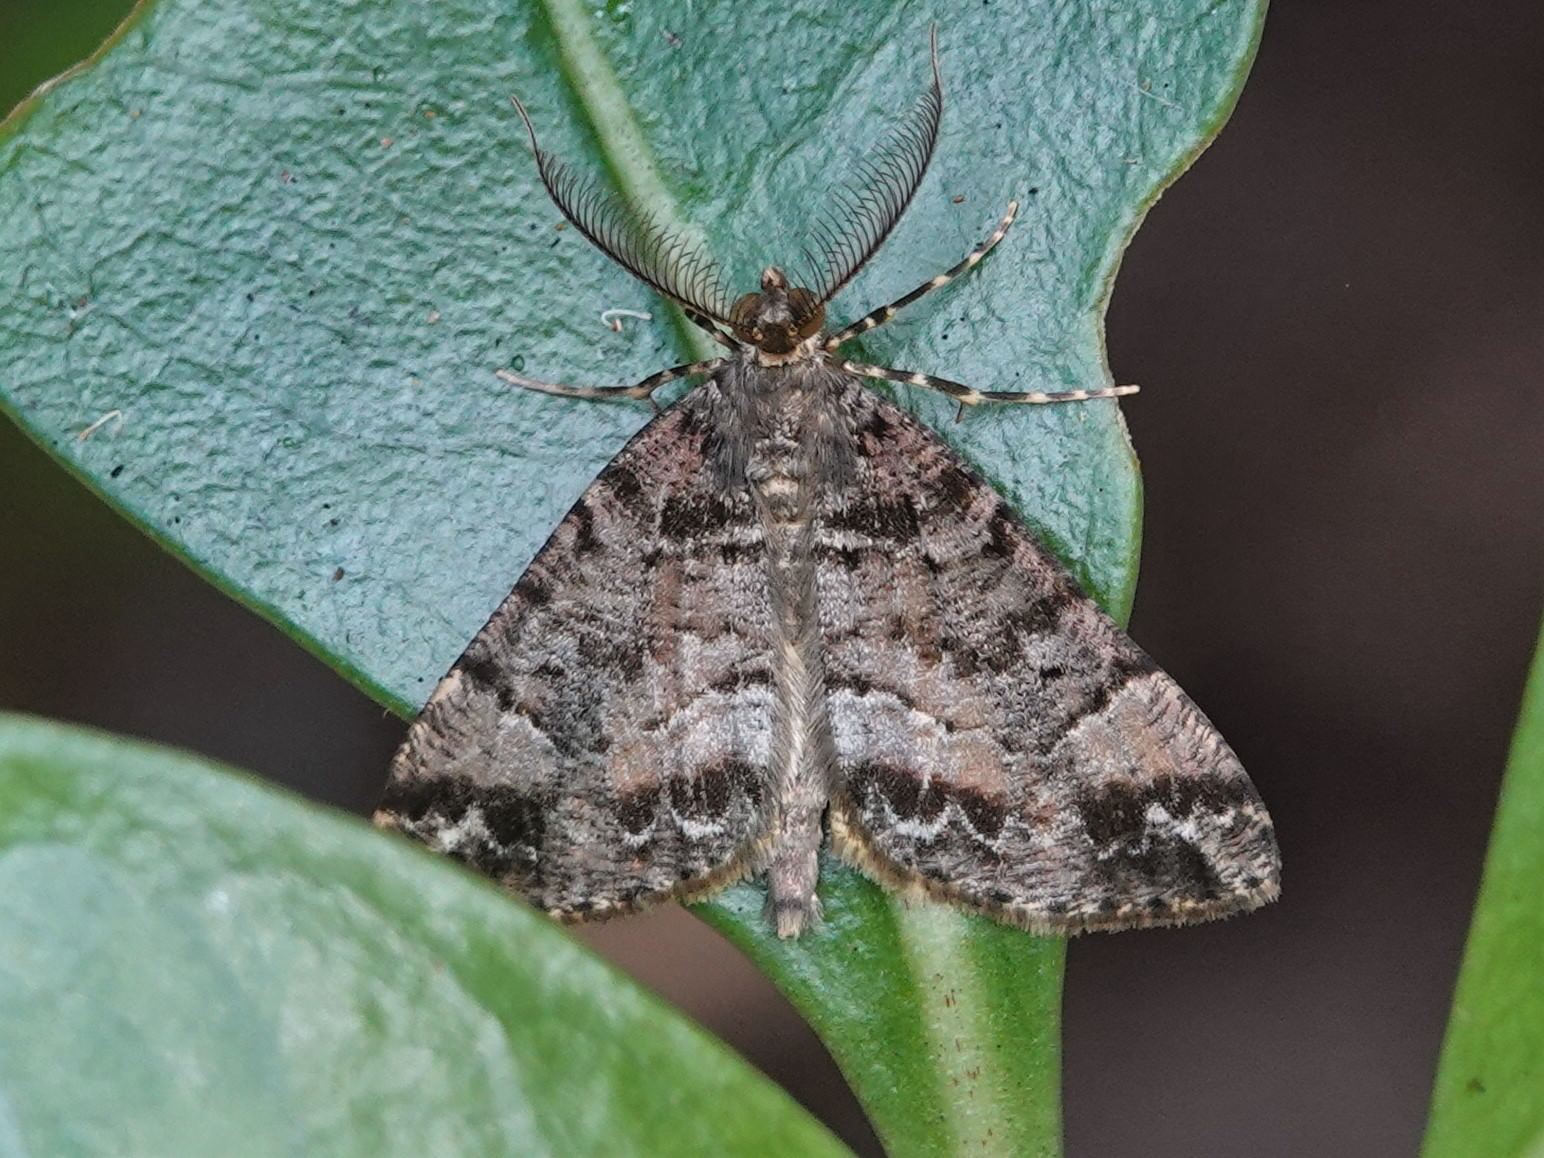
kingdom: Animalia
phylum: Arthropoda
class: Insecta
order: Lepidoptera
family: Geometridae
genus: Pseudocoremia
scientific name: Pseudocoremia productata
